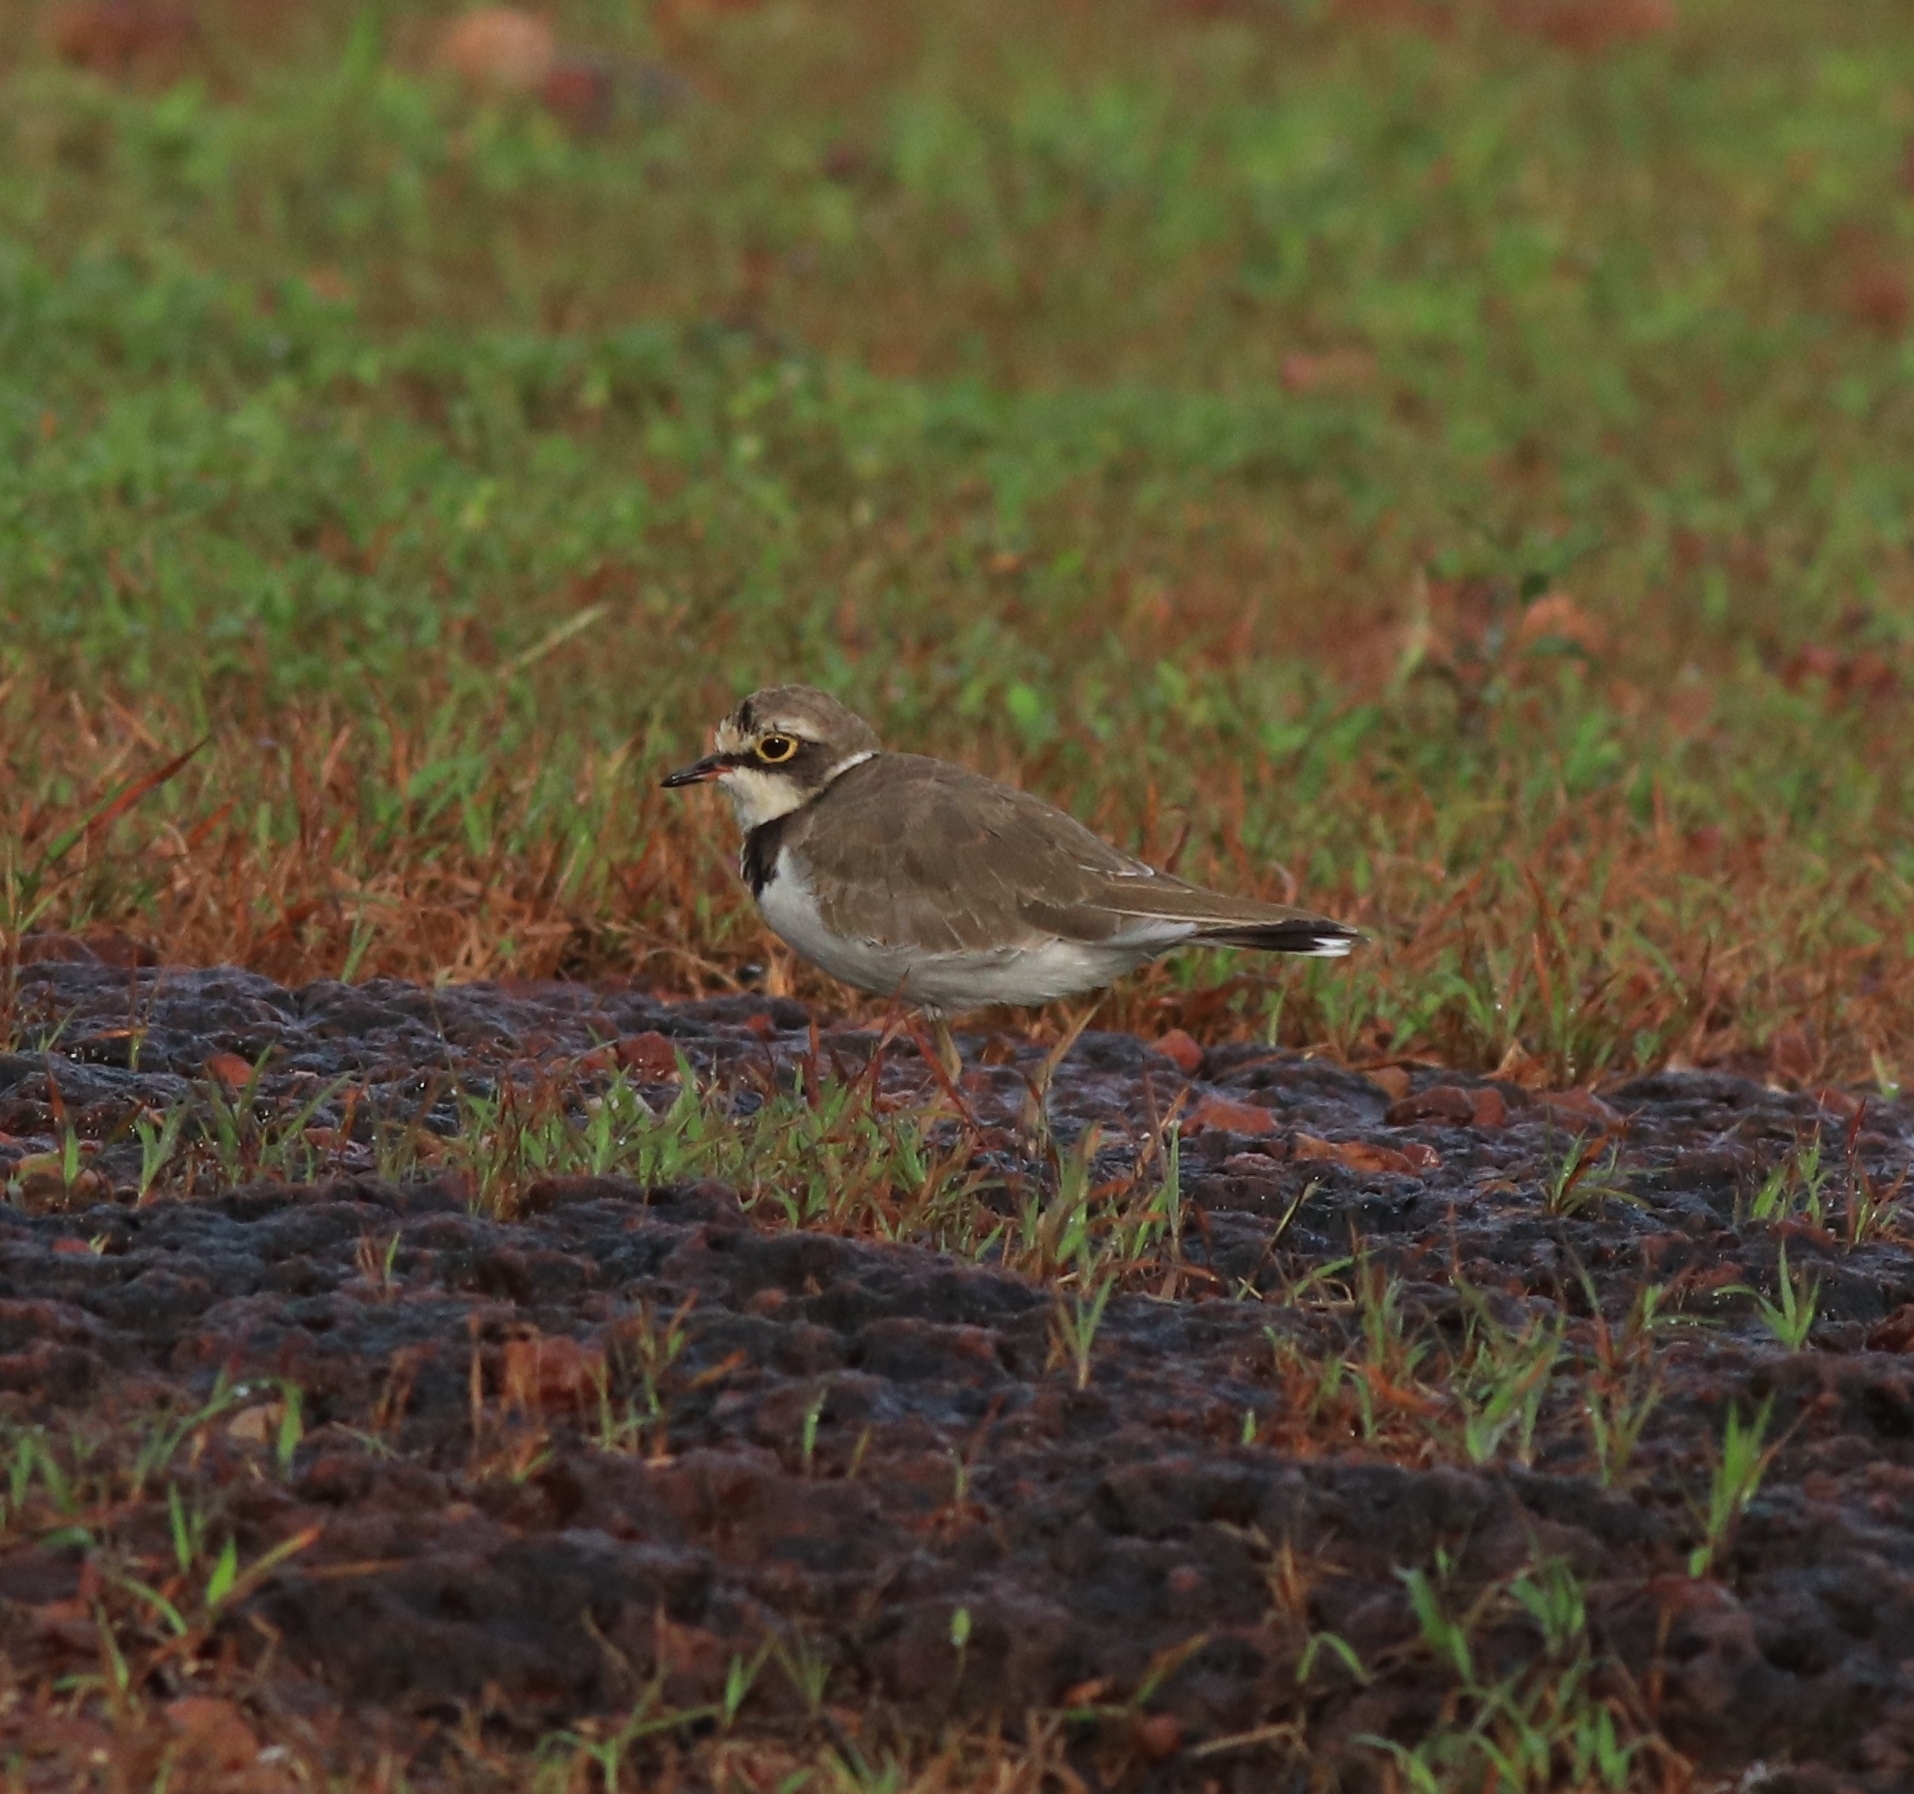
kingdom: Animalia
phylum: Chordata
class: Aves
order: Charadriiformes
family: Charadriidae
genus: Charadrius
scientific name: Charadrius dubius
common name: Little ringed plover
